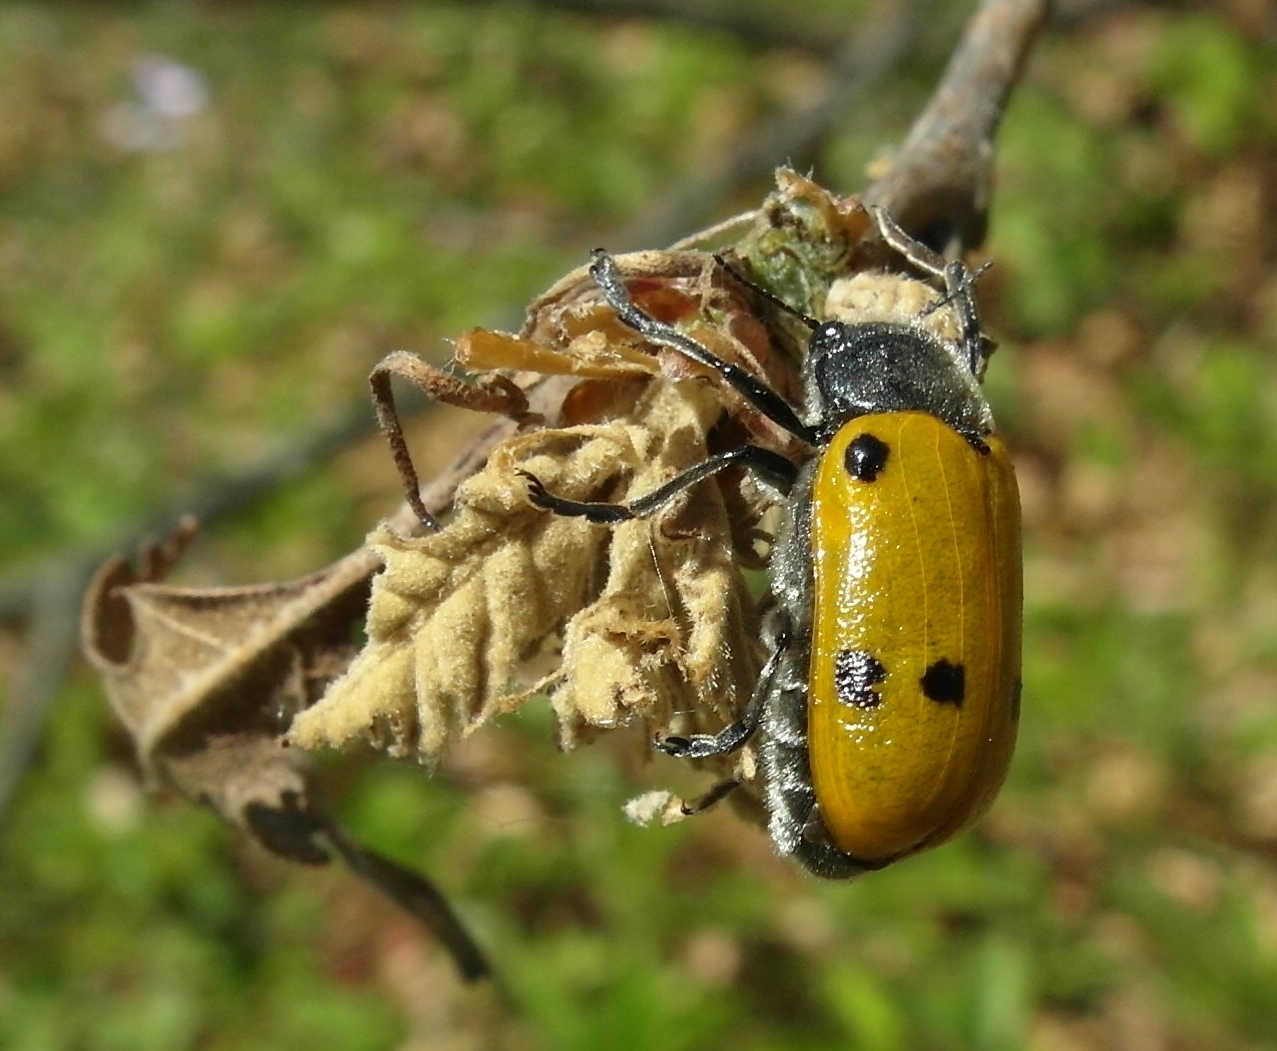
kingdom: Animalia
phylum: Arthropoda
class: Insecta
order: Coleoptera
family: Chrysomelidae
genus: Lachnaia
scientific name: Lachnaia sexpunctata
